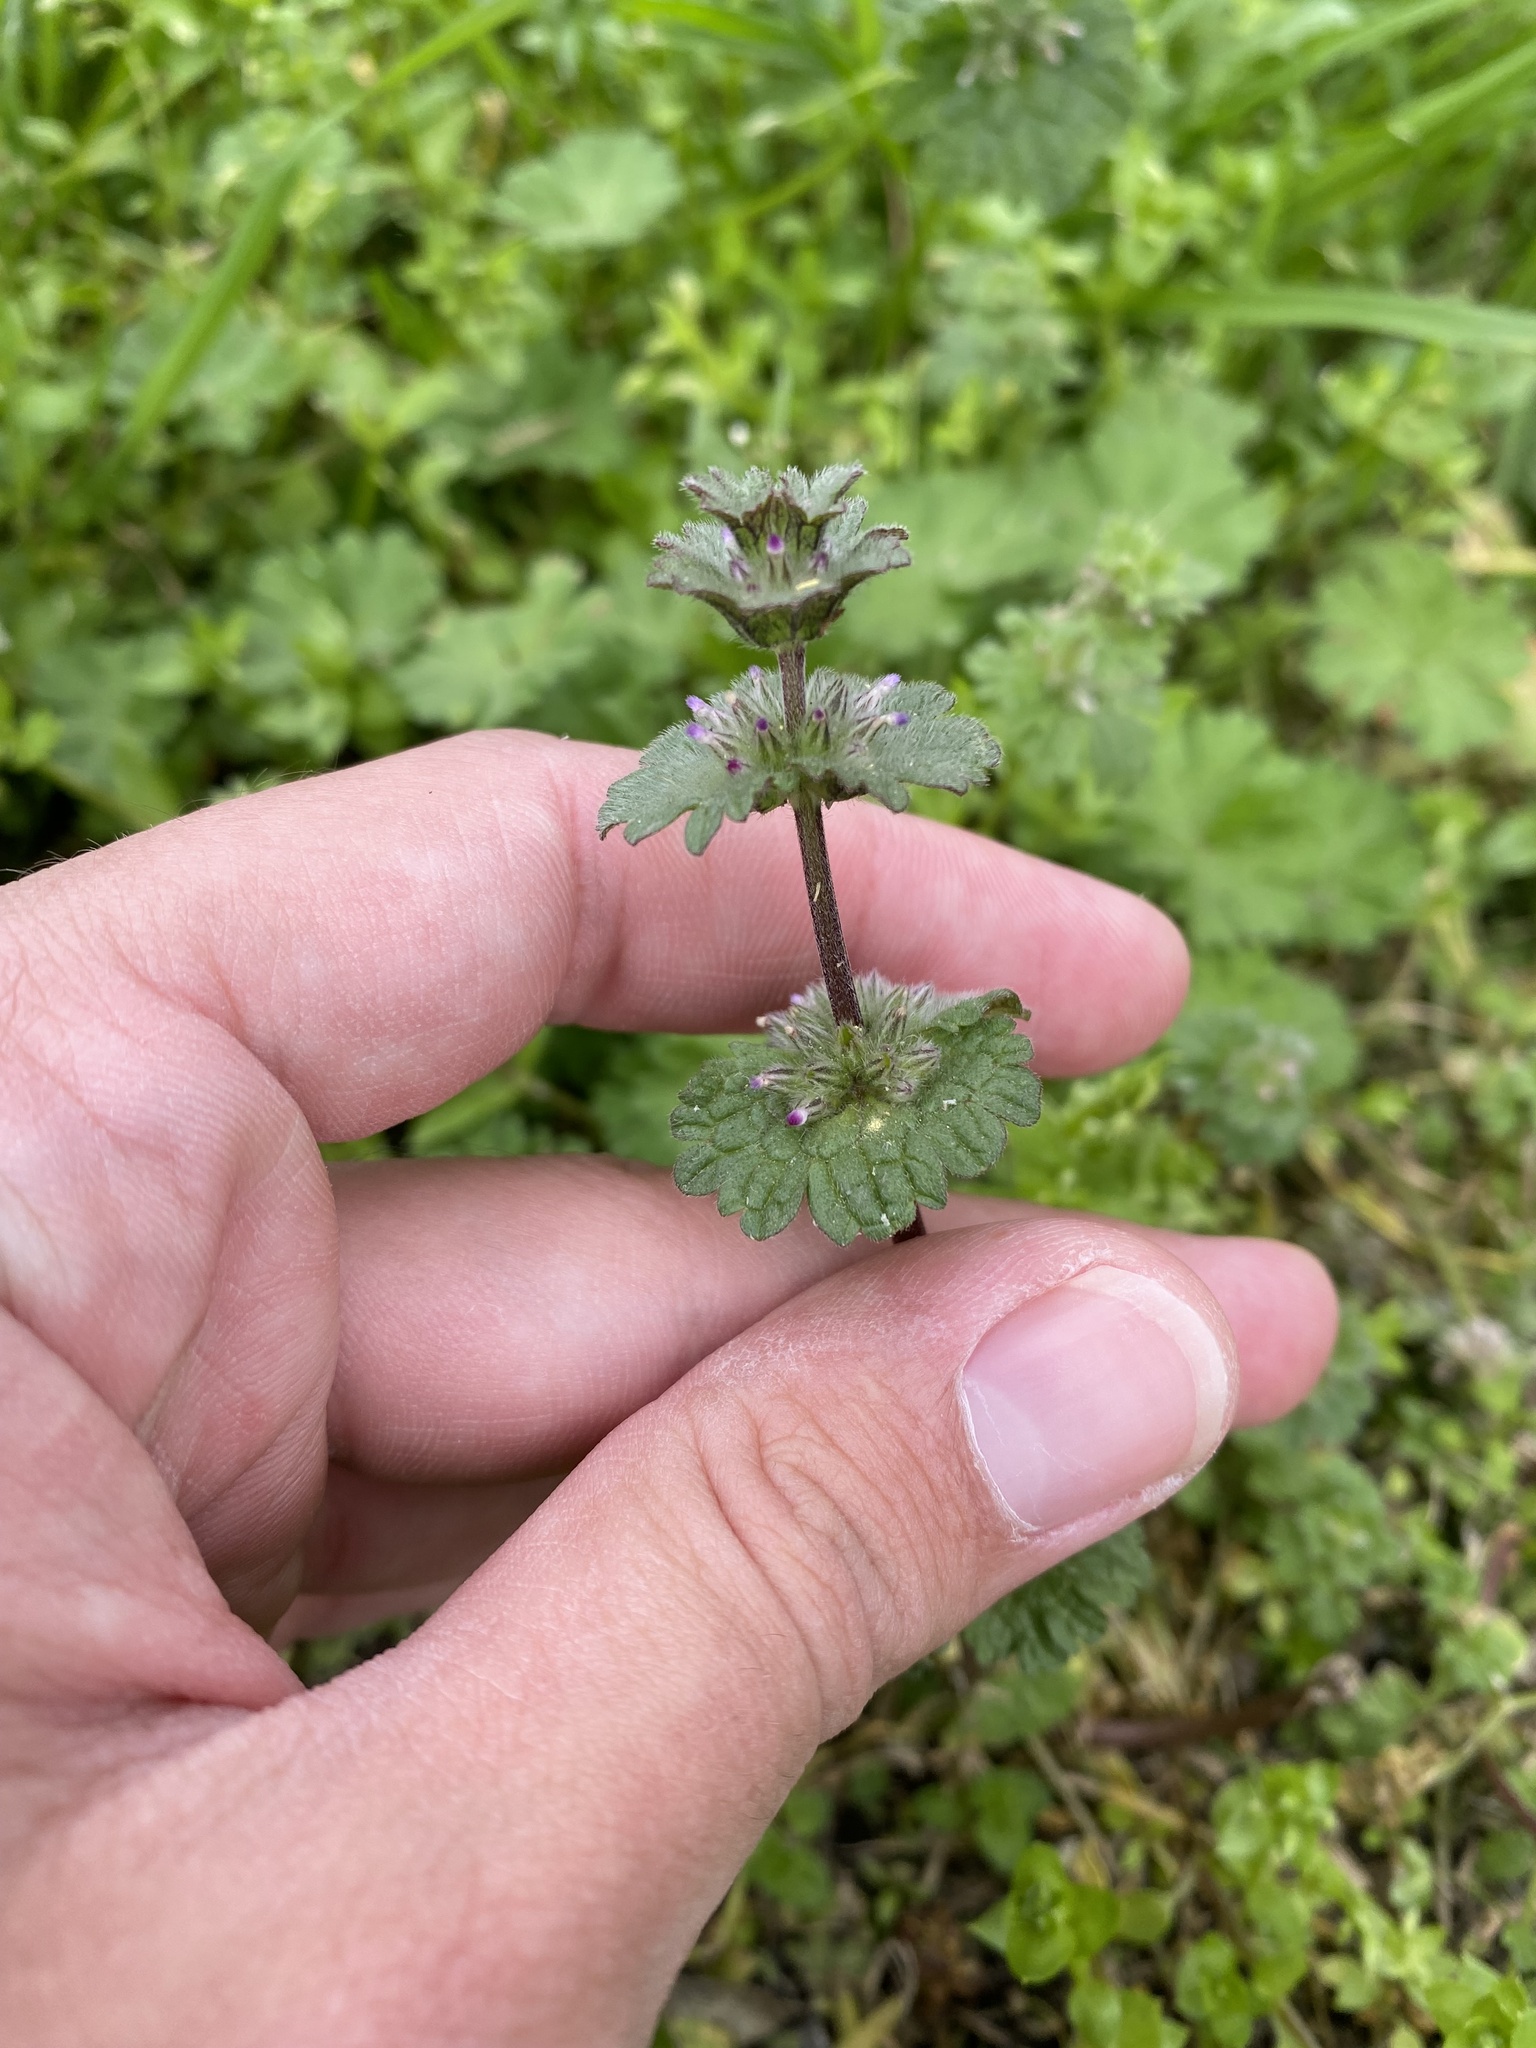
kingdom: Plantae
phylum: Tracheophyta
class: Magnoliopsida
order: Lamiales
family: Lamiaceae
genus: Lamium
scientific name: Lamium amplexicaule
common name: Henbit dead-nettle
